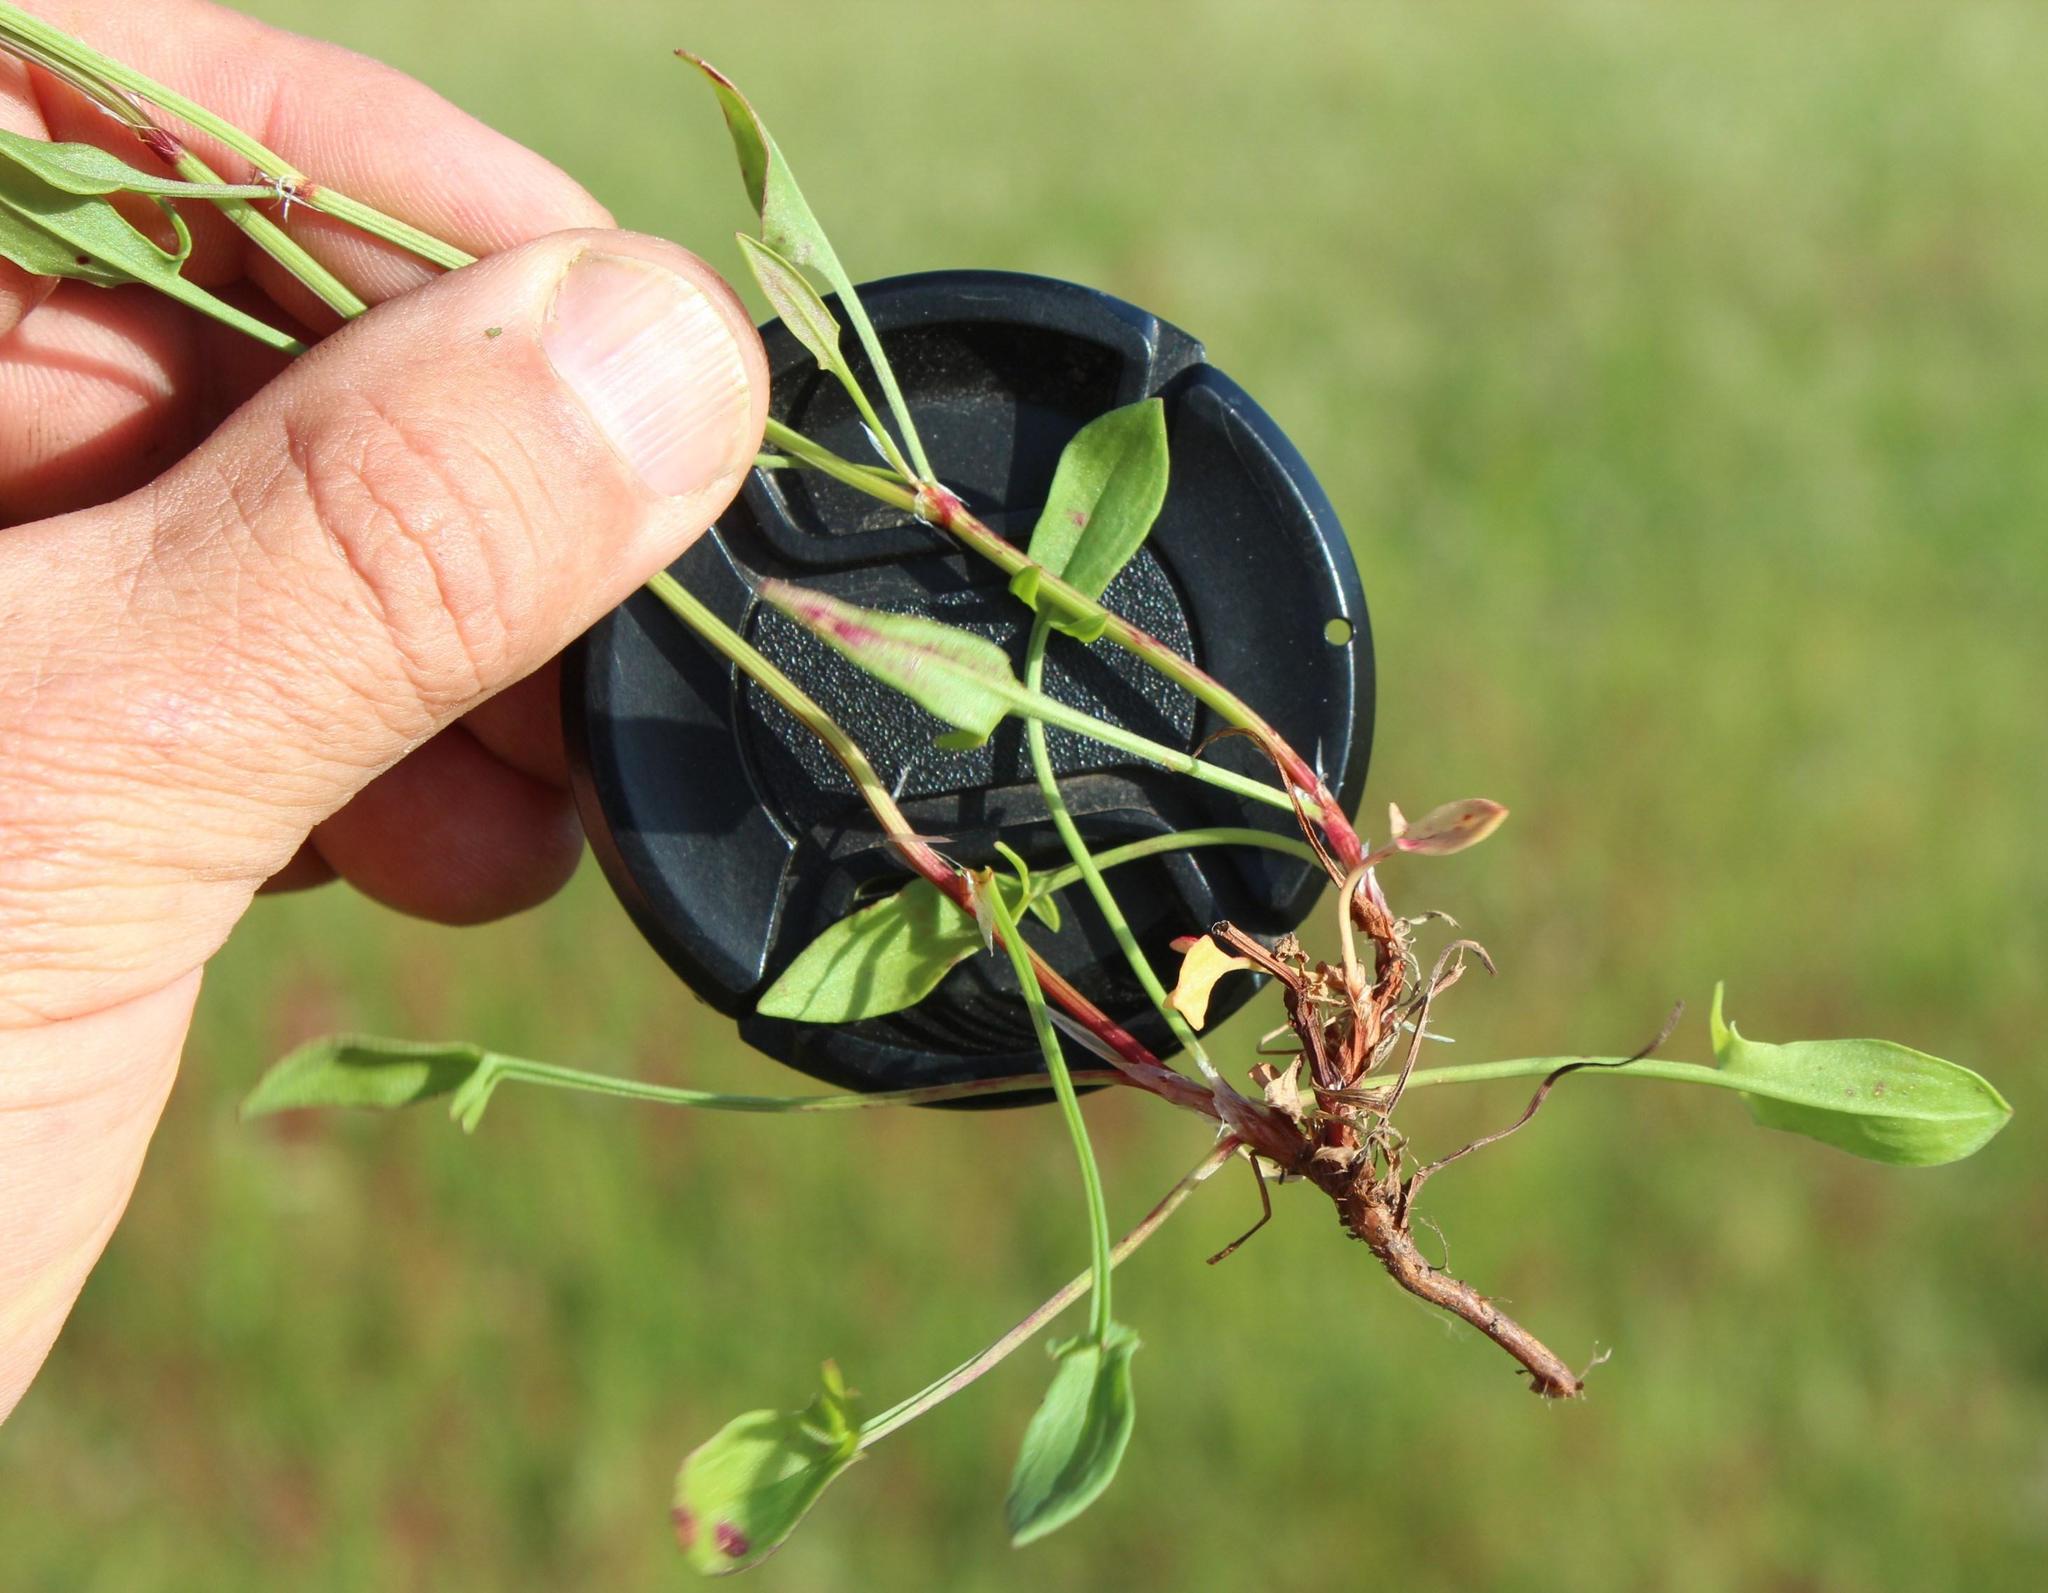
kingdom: Plantae
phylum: Tracheophyta
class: Magnoliopsida
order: Caryophyllales
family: Polygonaceae
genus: Rumex
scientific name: Rumex acetosella
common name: Common sheep sorrel
